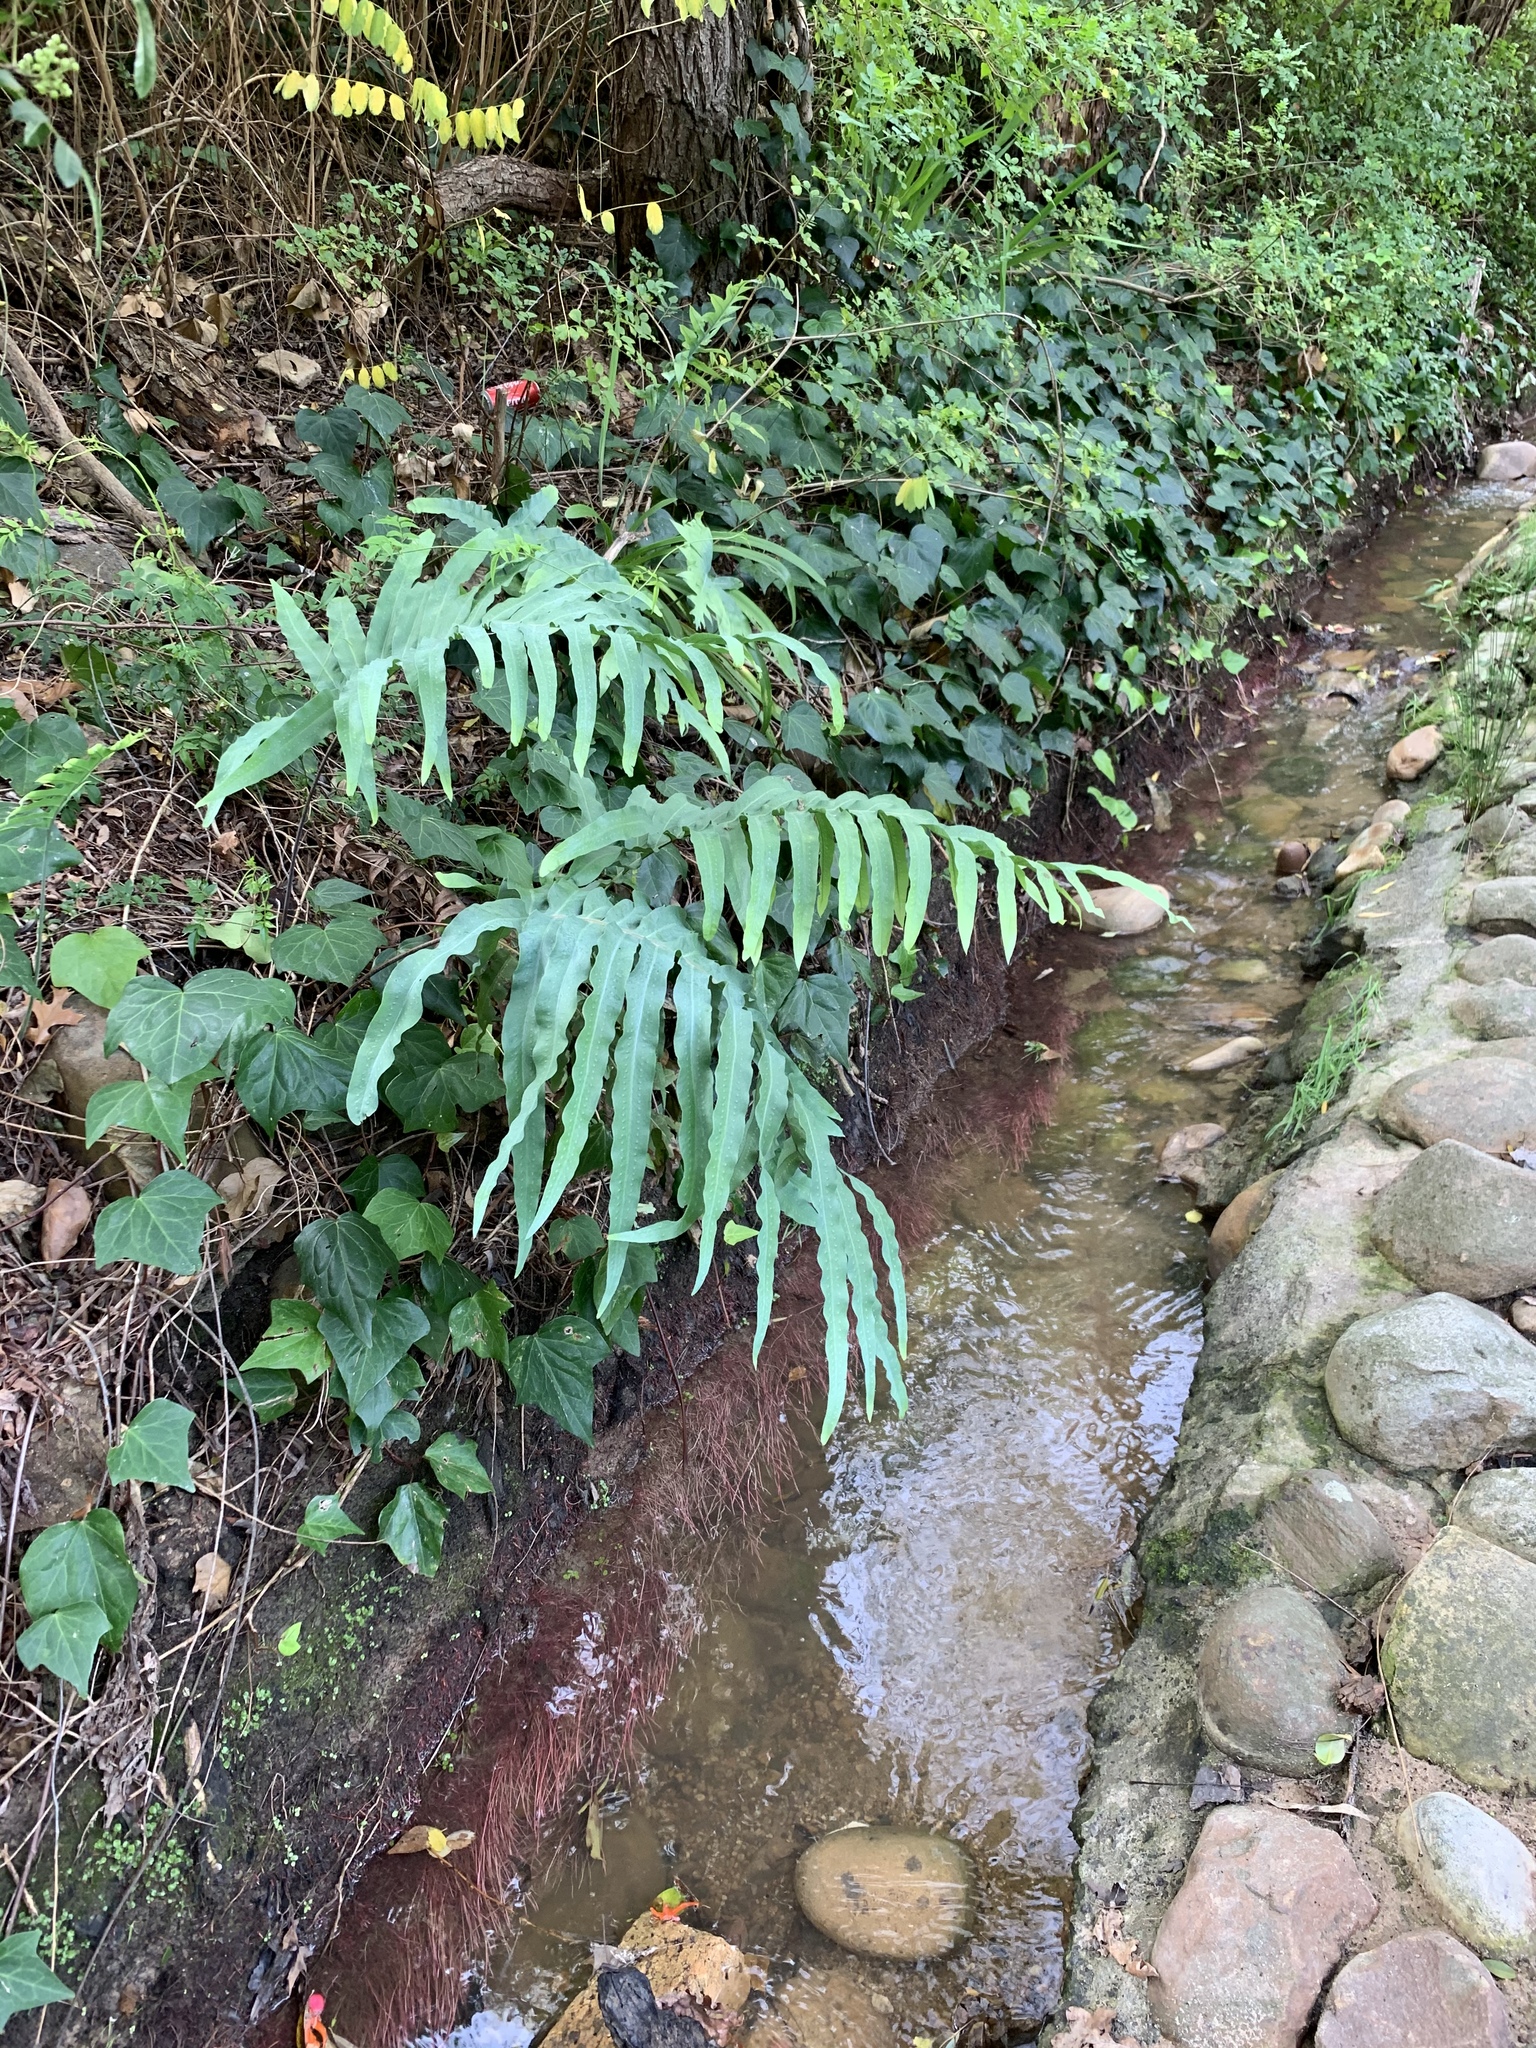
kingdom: Plantae
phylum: Tracheophyta
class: Polypodiopsida
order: Polypodiales
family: Polypodiaceae
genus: Phlebodium
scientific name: Phlebodium aureum
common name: Gold-foot fern
